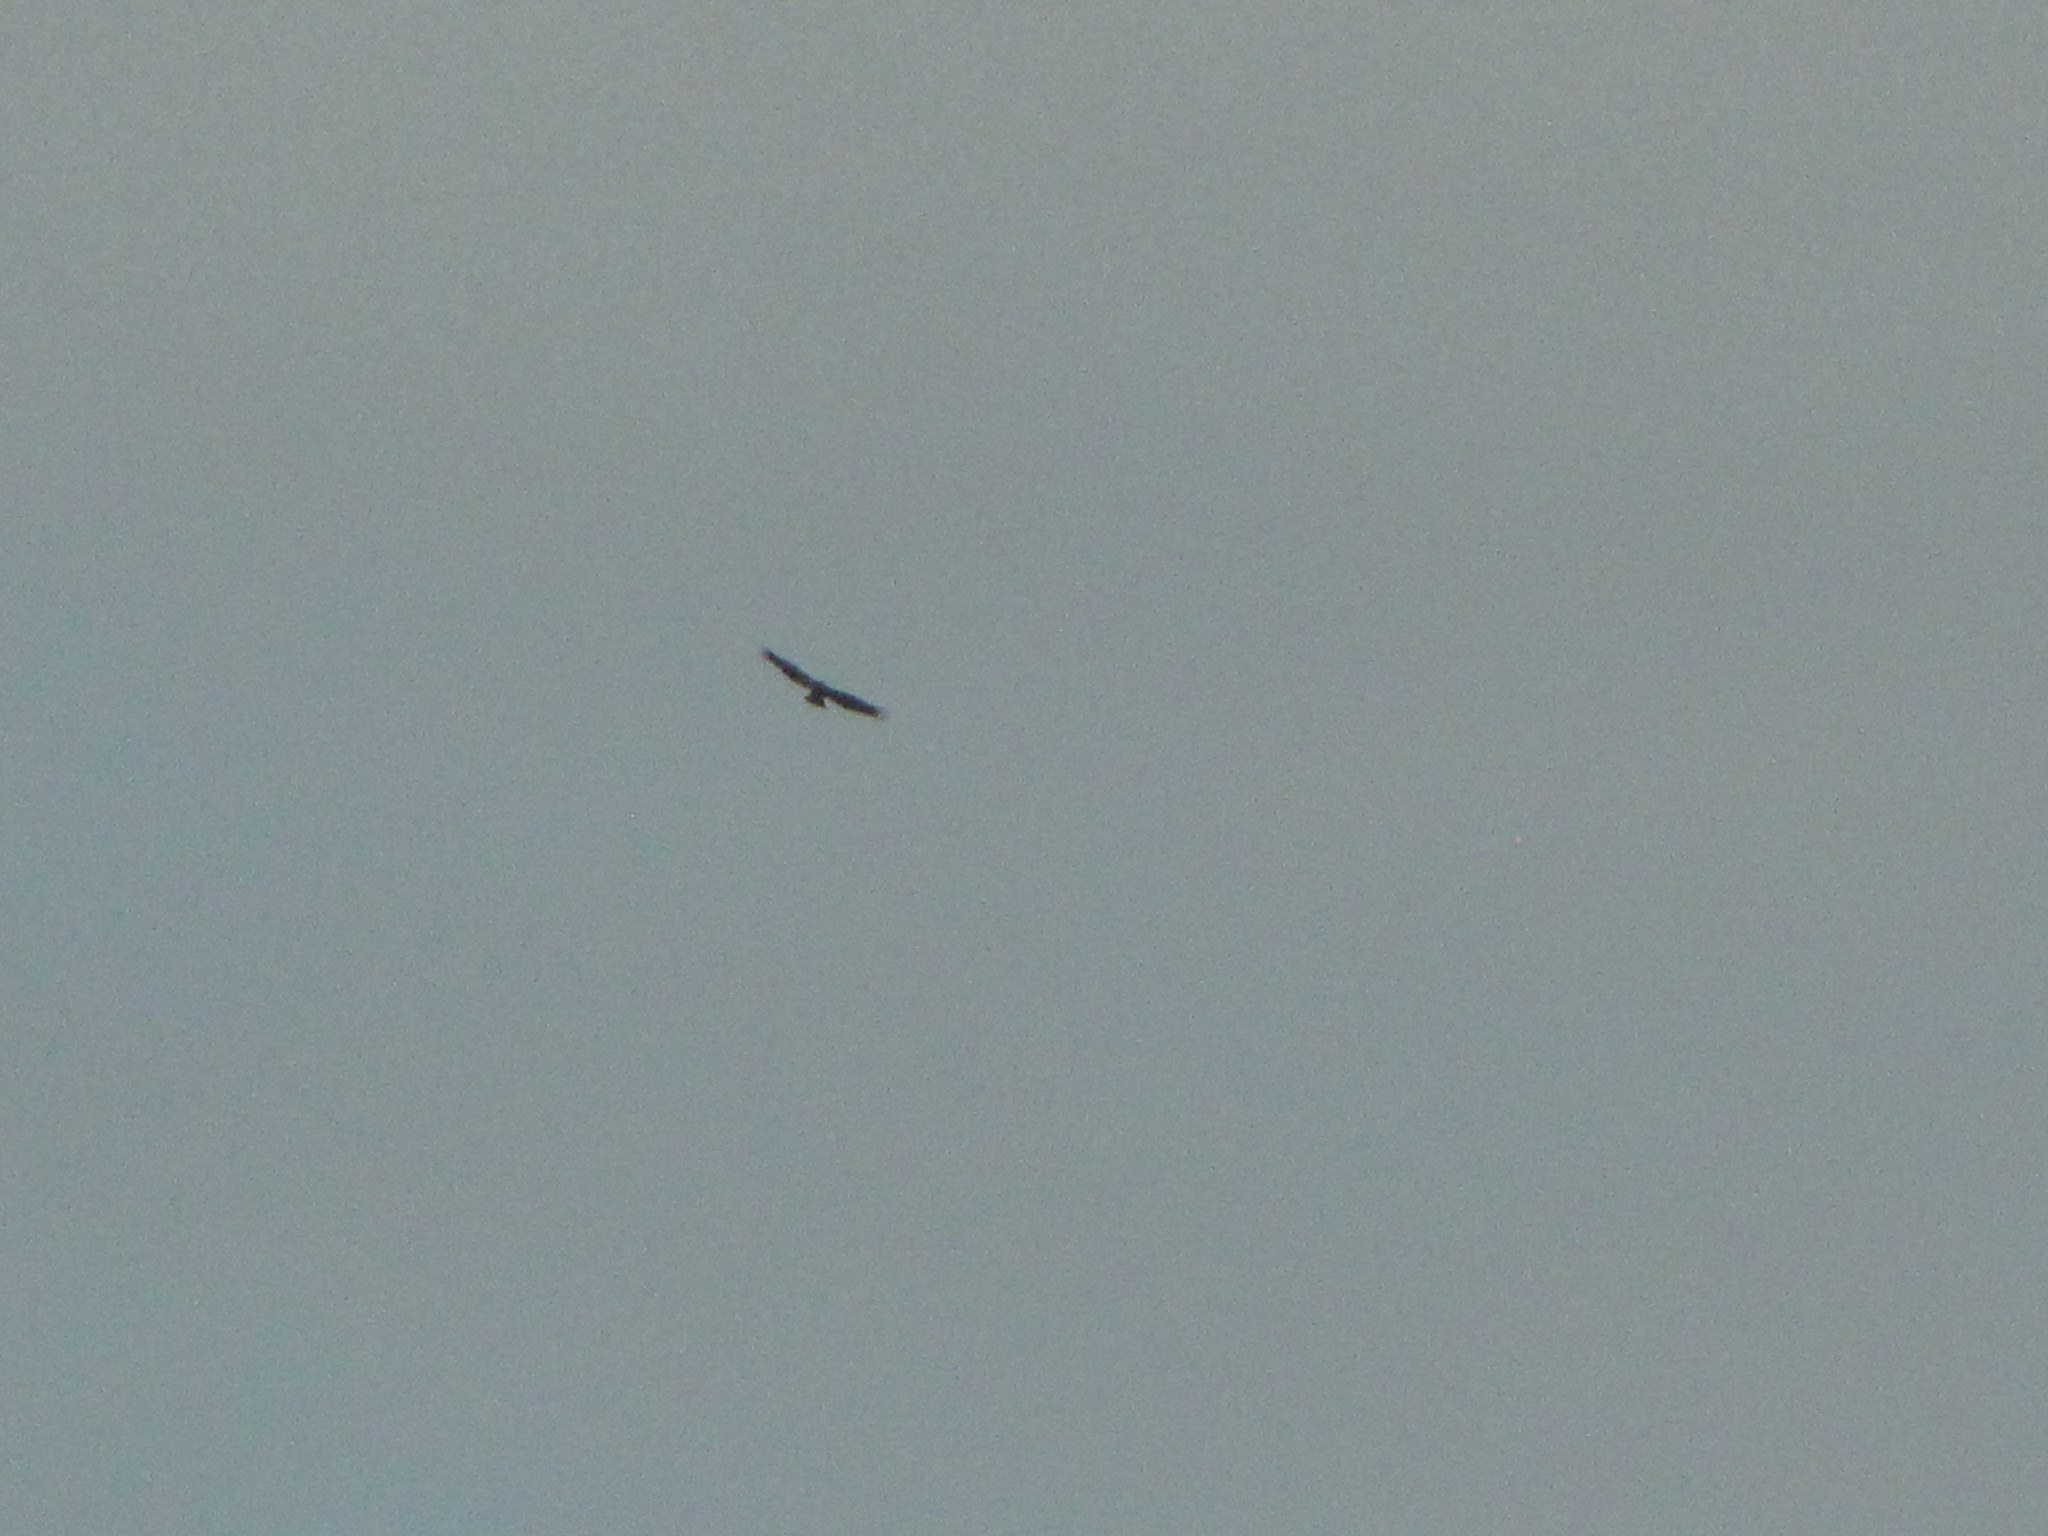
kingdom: Animalia
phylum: Chordata
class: Aves
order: Accipitriformes
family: Accipitridae
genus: Buteo
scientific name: Buteo jamaicensis
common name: Red-tailed hawk
